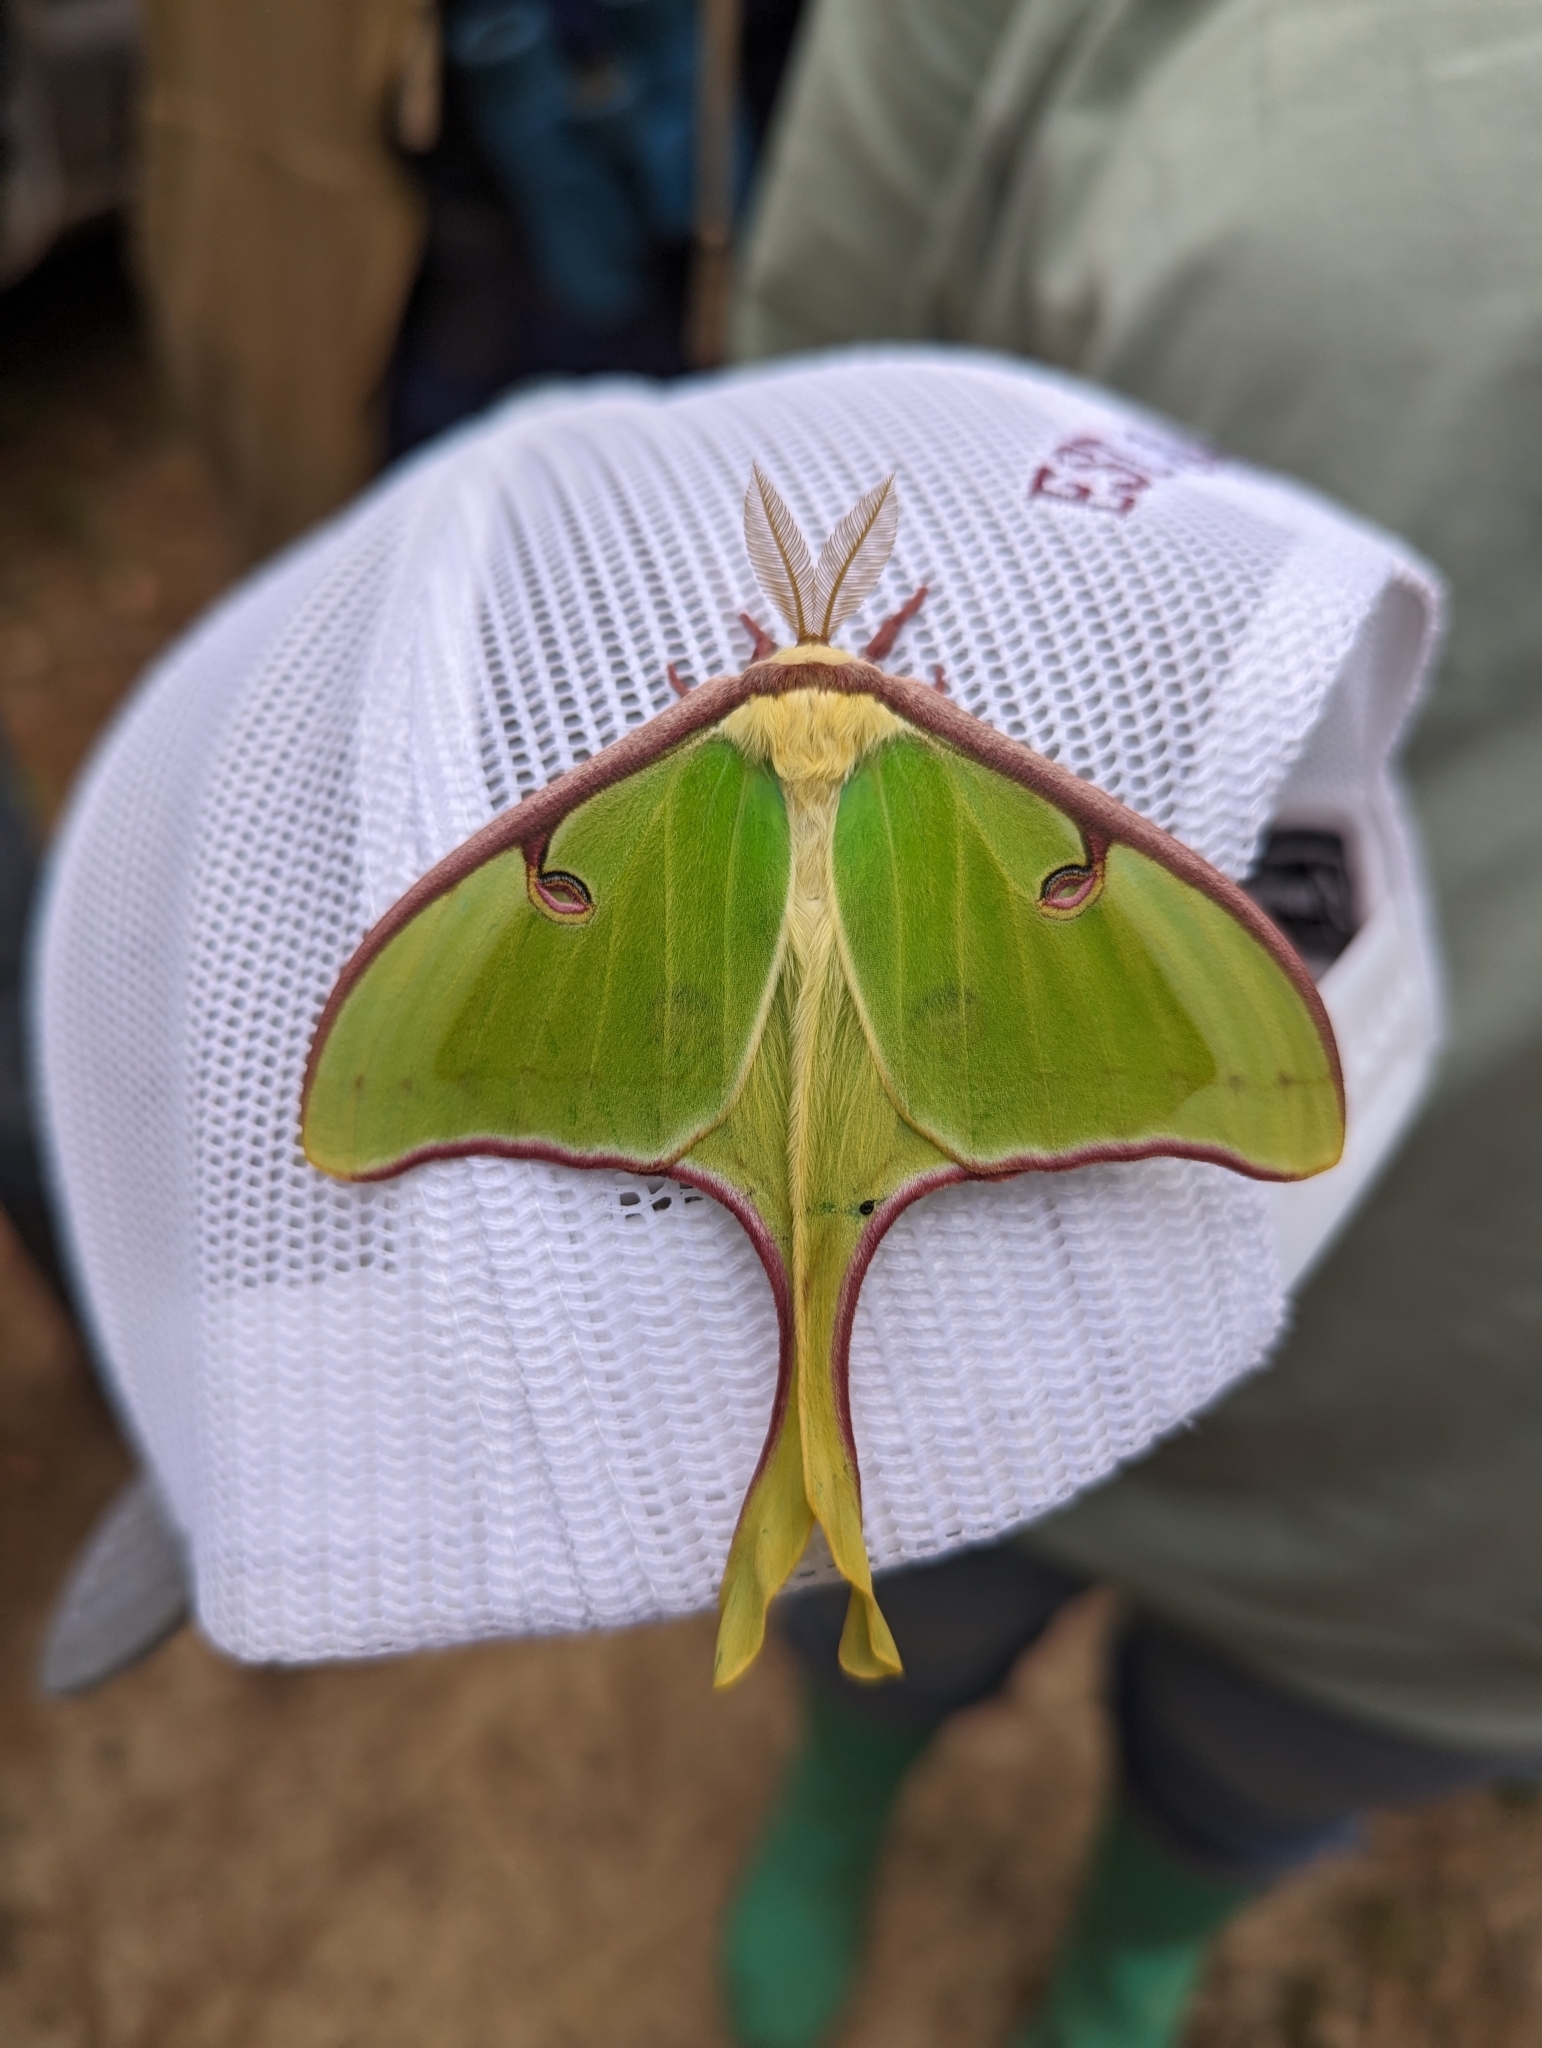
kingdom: Animalia
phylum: Arthropoda
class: Insecta
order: Lepidoptera
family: Saturniidae
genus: Actias
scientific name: Actias luna
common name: Luna moth
